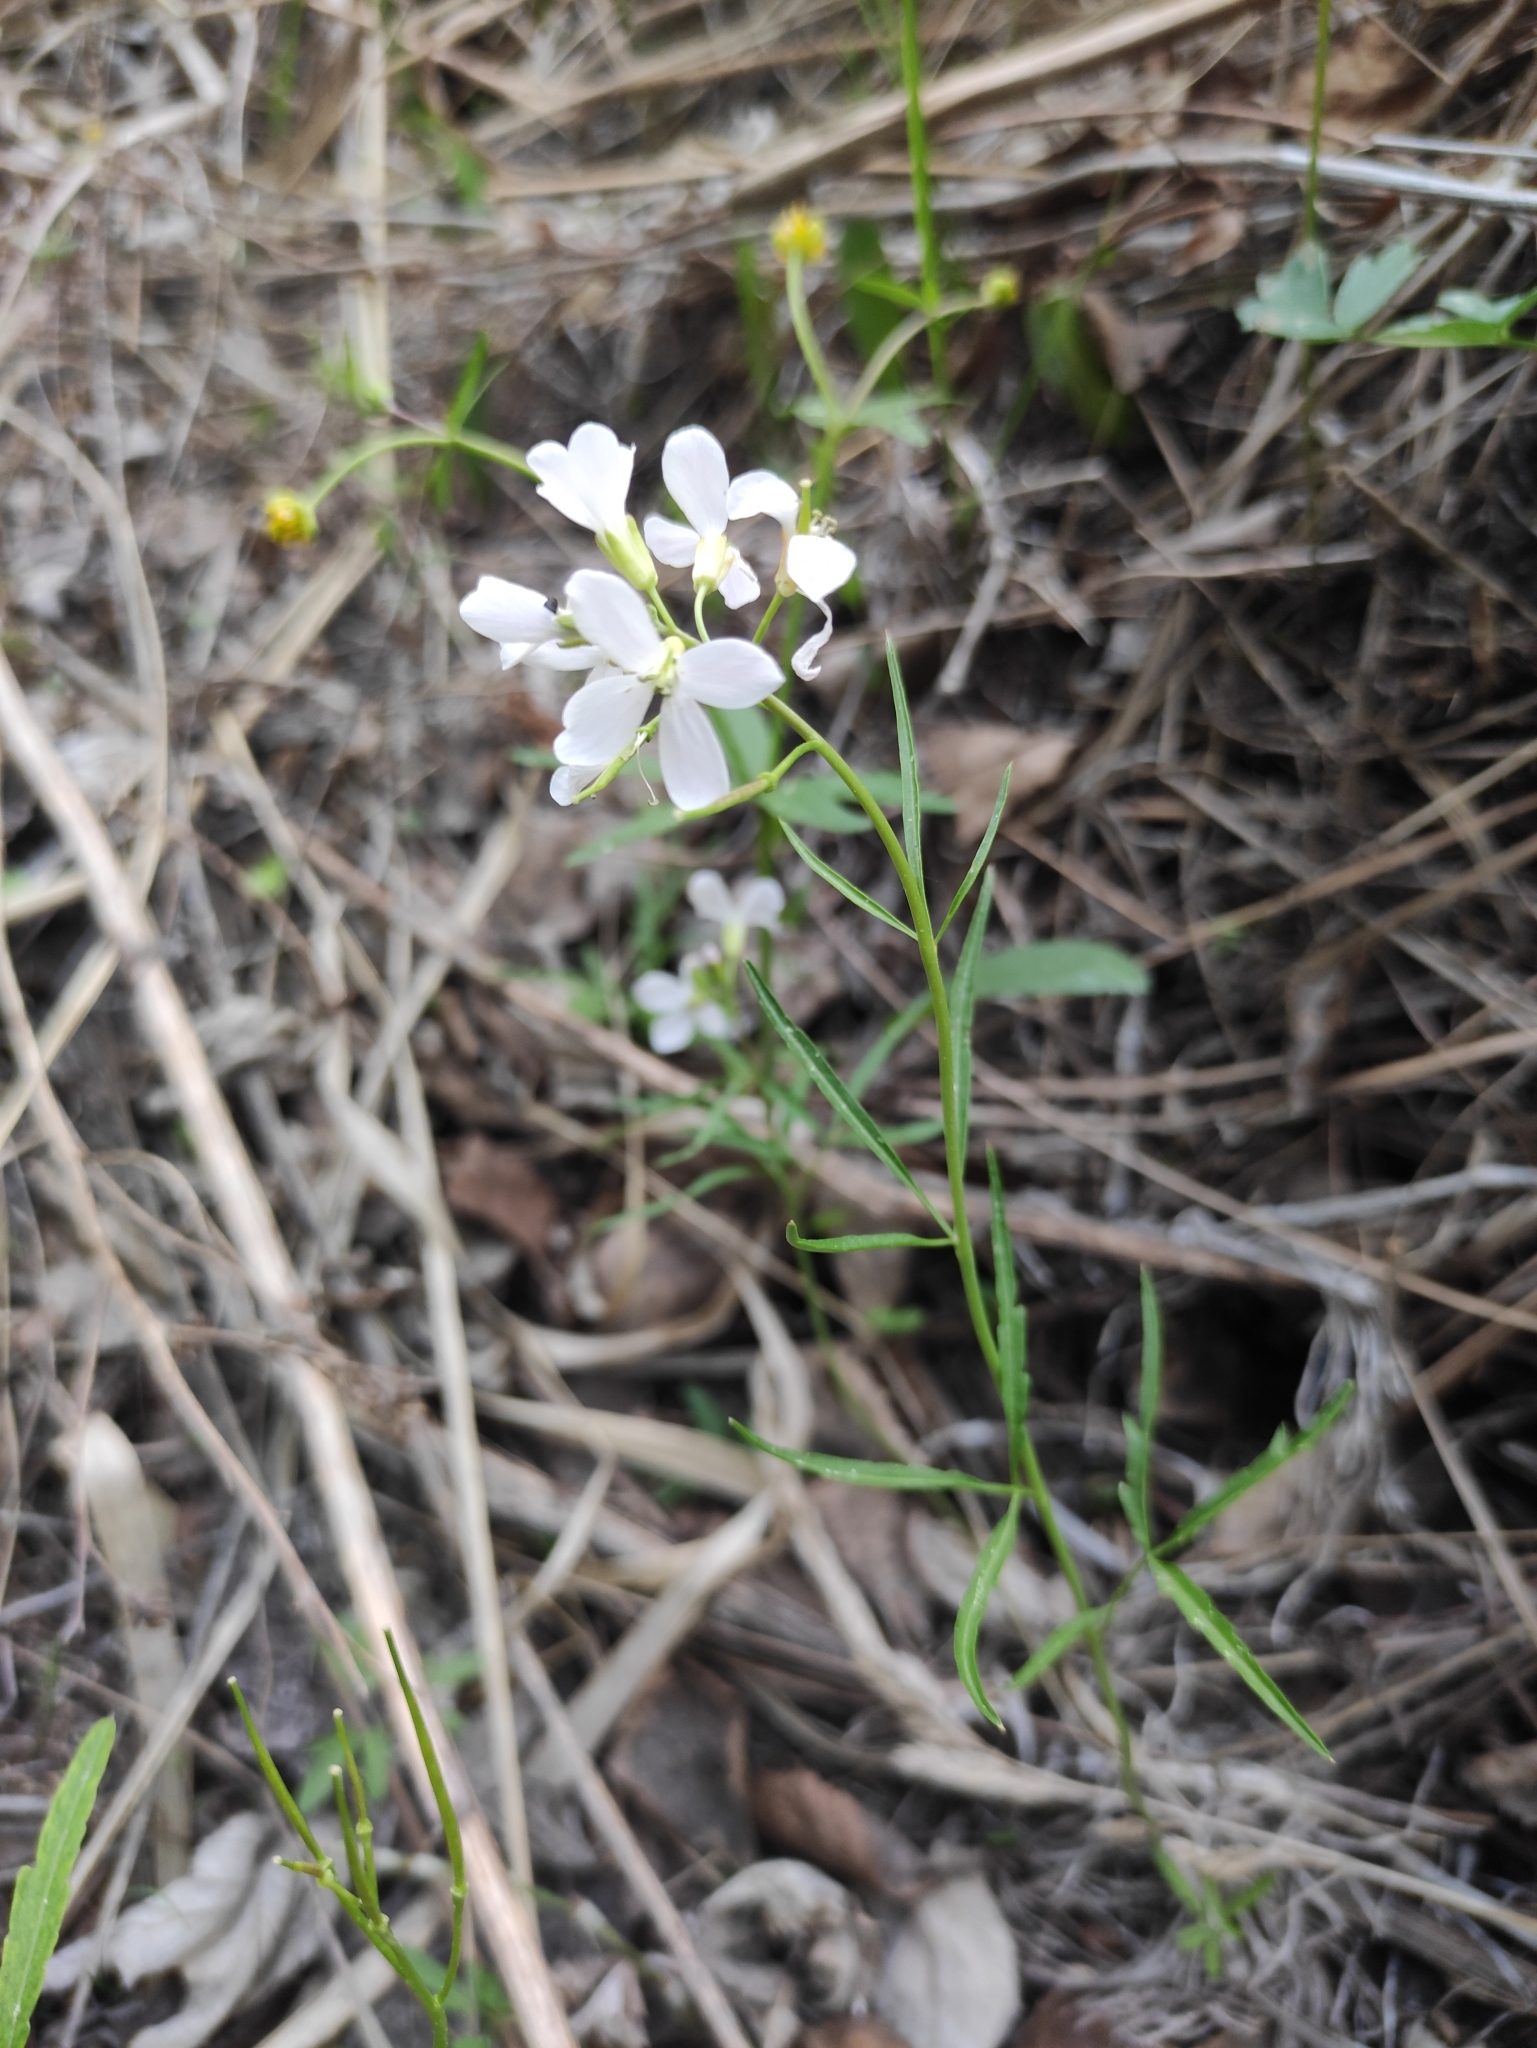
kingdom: Plantae
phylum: Tracheophyta
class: Magnoliopsida
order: Brassicales
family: Brassicaceae
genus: Cardamine
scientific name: Cardamine trifida
